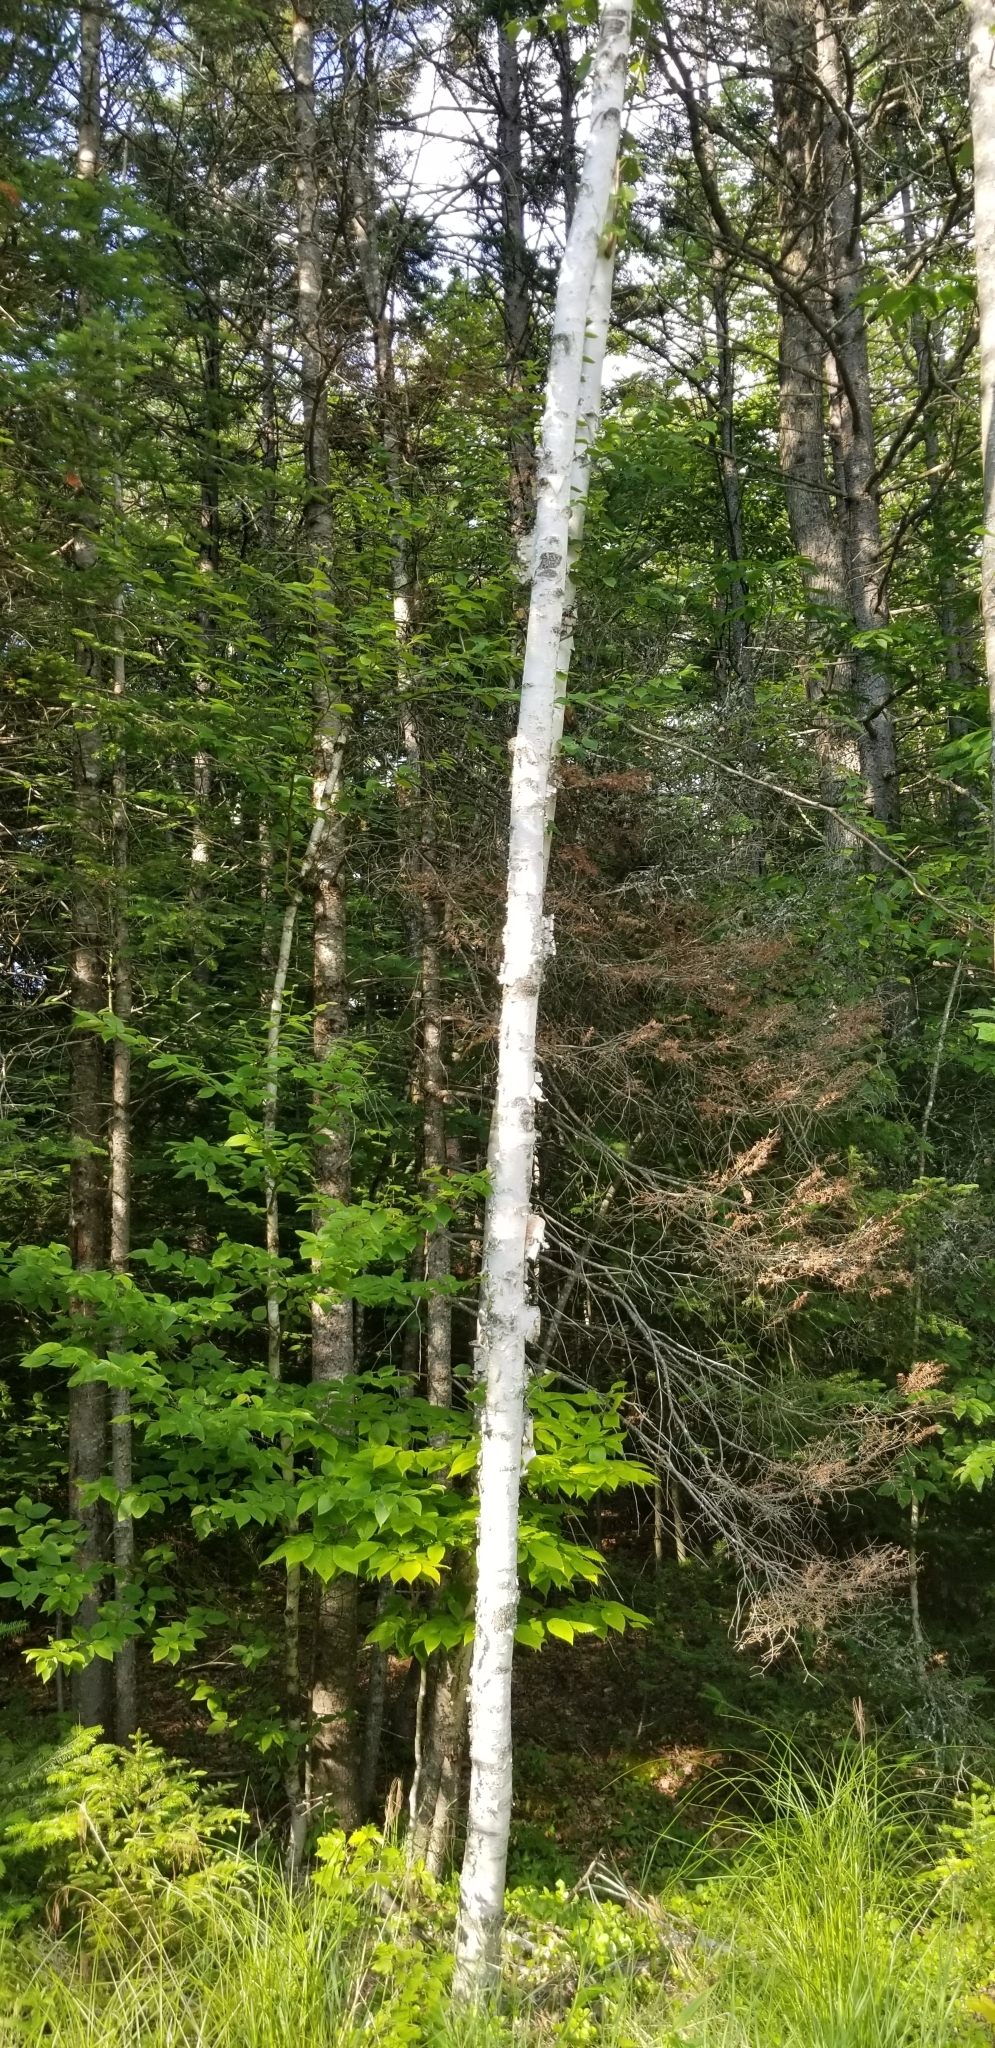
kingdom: Plantae
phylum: Tracheophyta
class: Magnoliopsida
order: Fagales
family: Betulaceae
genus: Betula
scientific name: Betula papyrifera
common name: Paper birch
